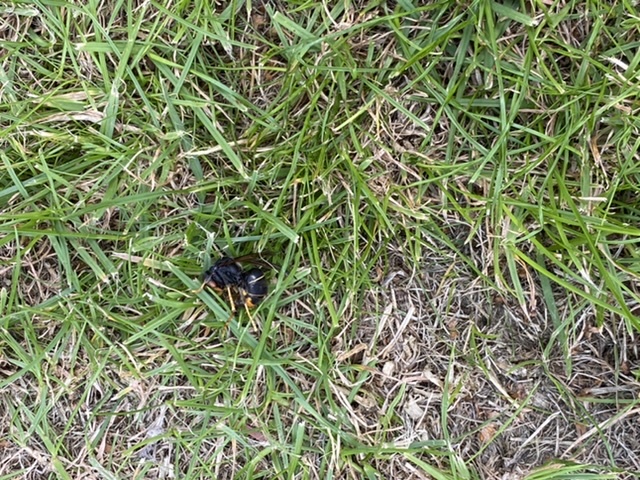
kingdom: Animalia
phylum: Arthropoda
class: Insecta
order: Hymenoptera
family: Vespidae
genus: Vespa
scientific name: Vespa velutina
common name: Asian hornet
